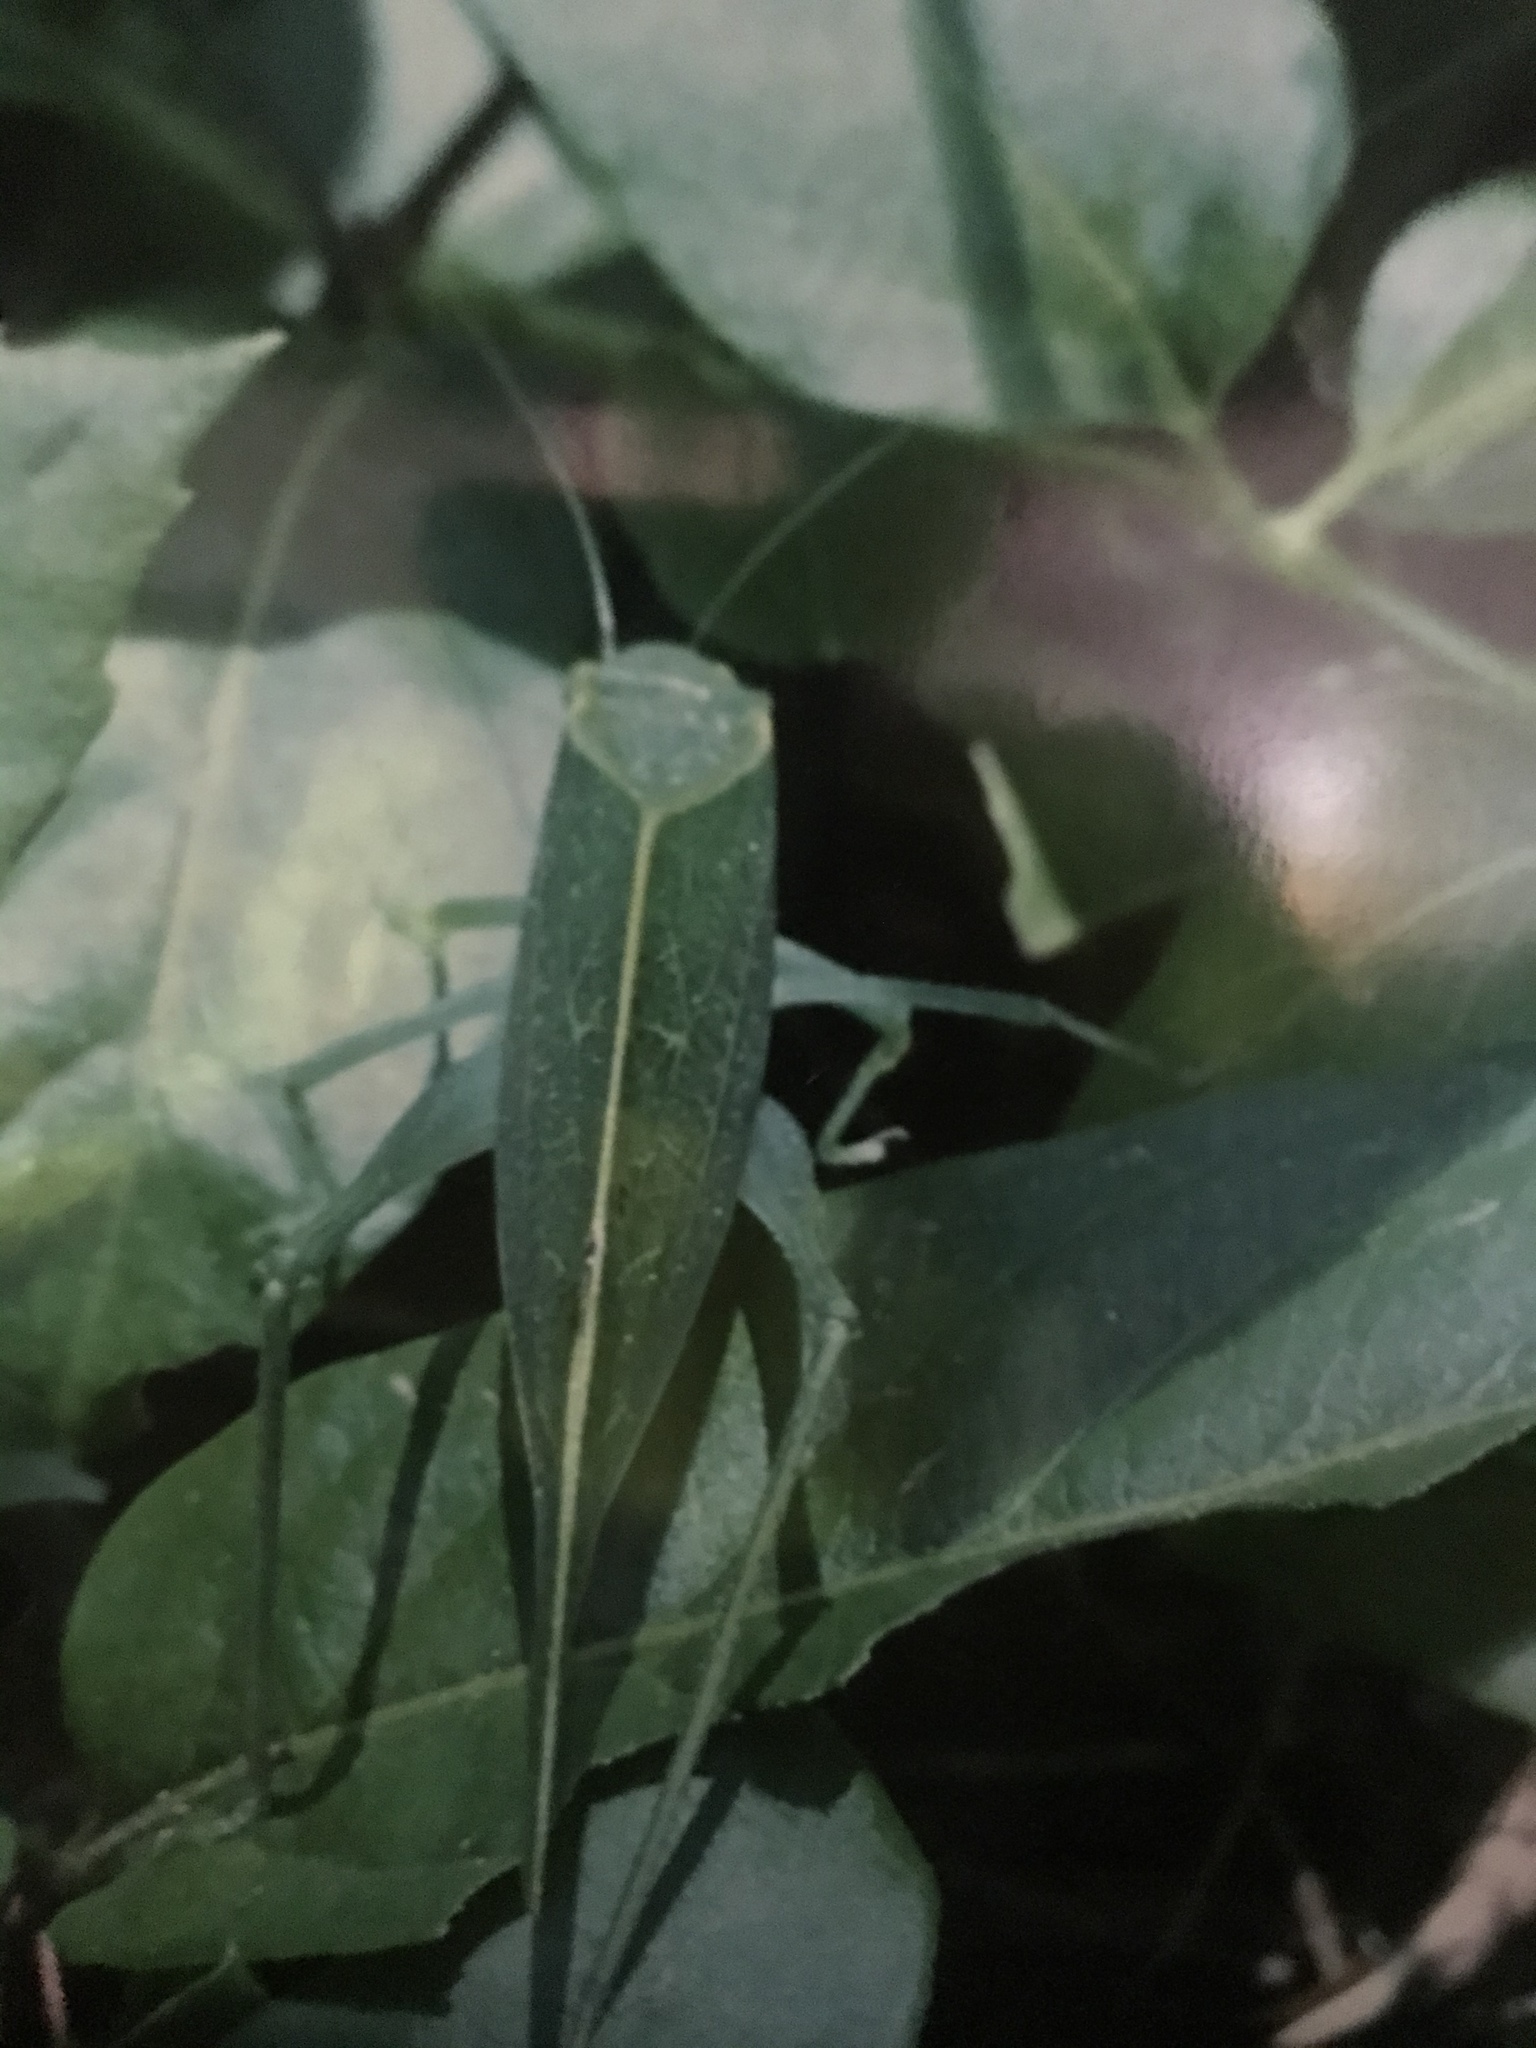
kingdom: Animalia
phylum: Arthropoda
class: Insecta
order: Orthoptera
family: Tettigoniidae
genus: Microcentrum
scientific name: Microcentrum rhombifolium
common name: Broad-winged katydid
